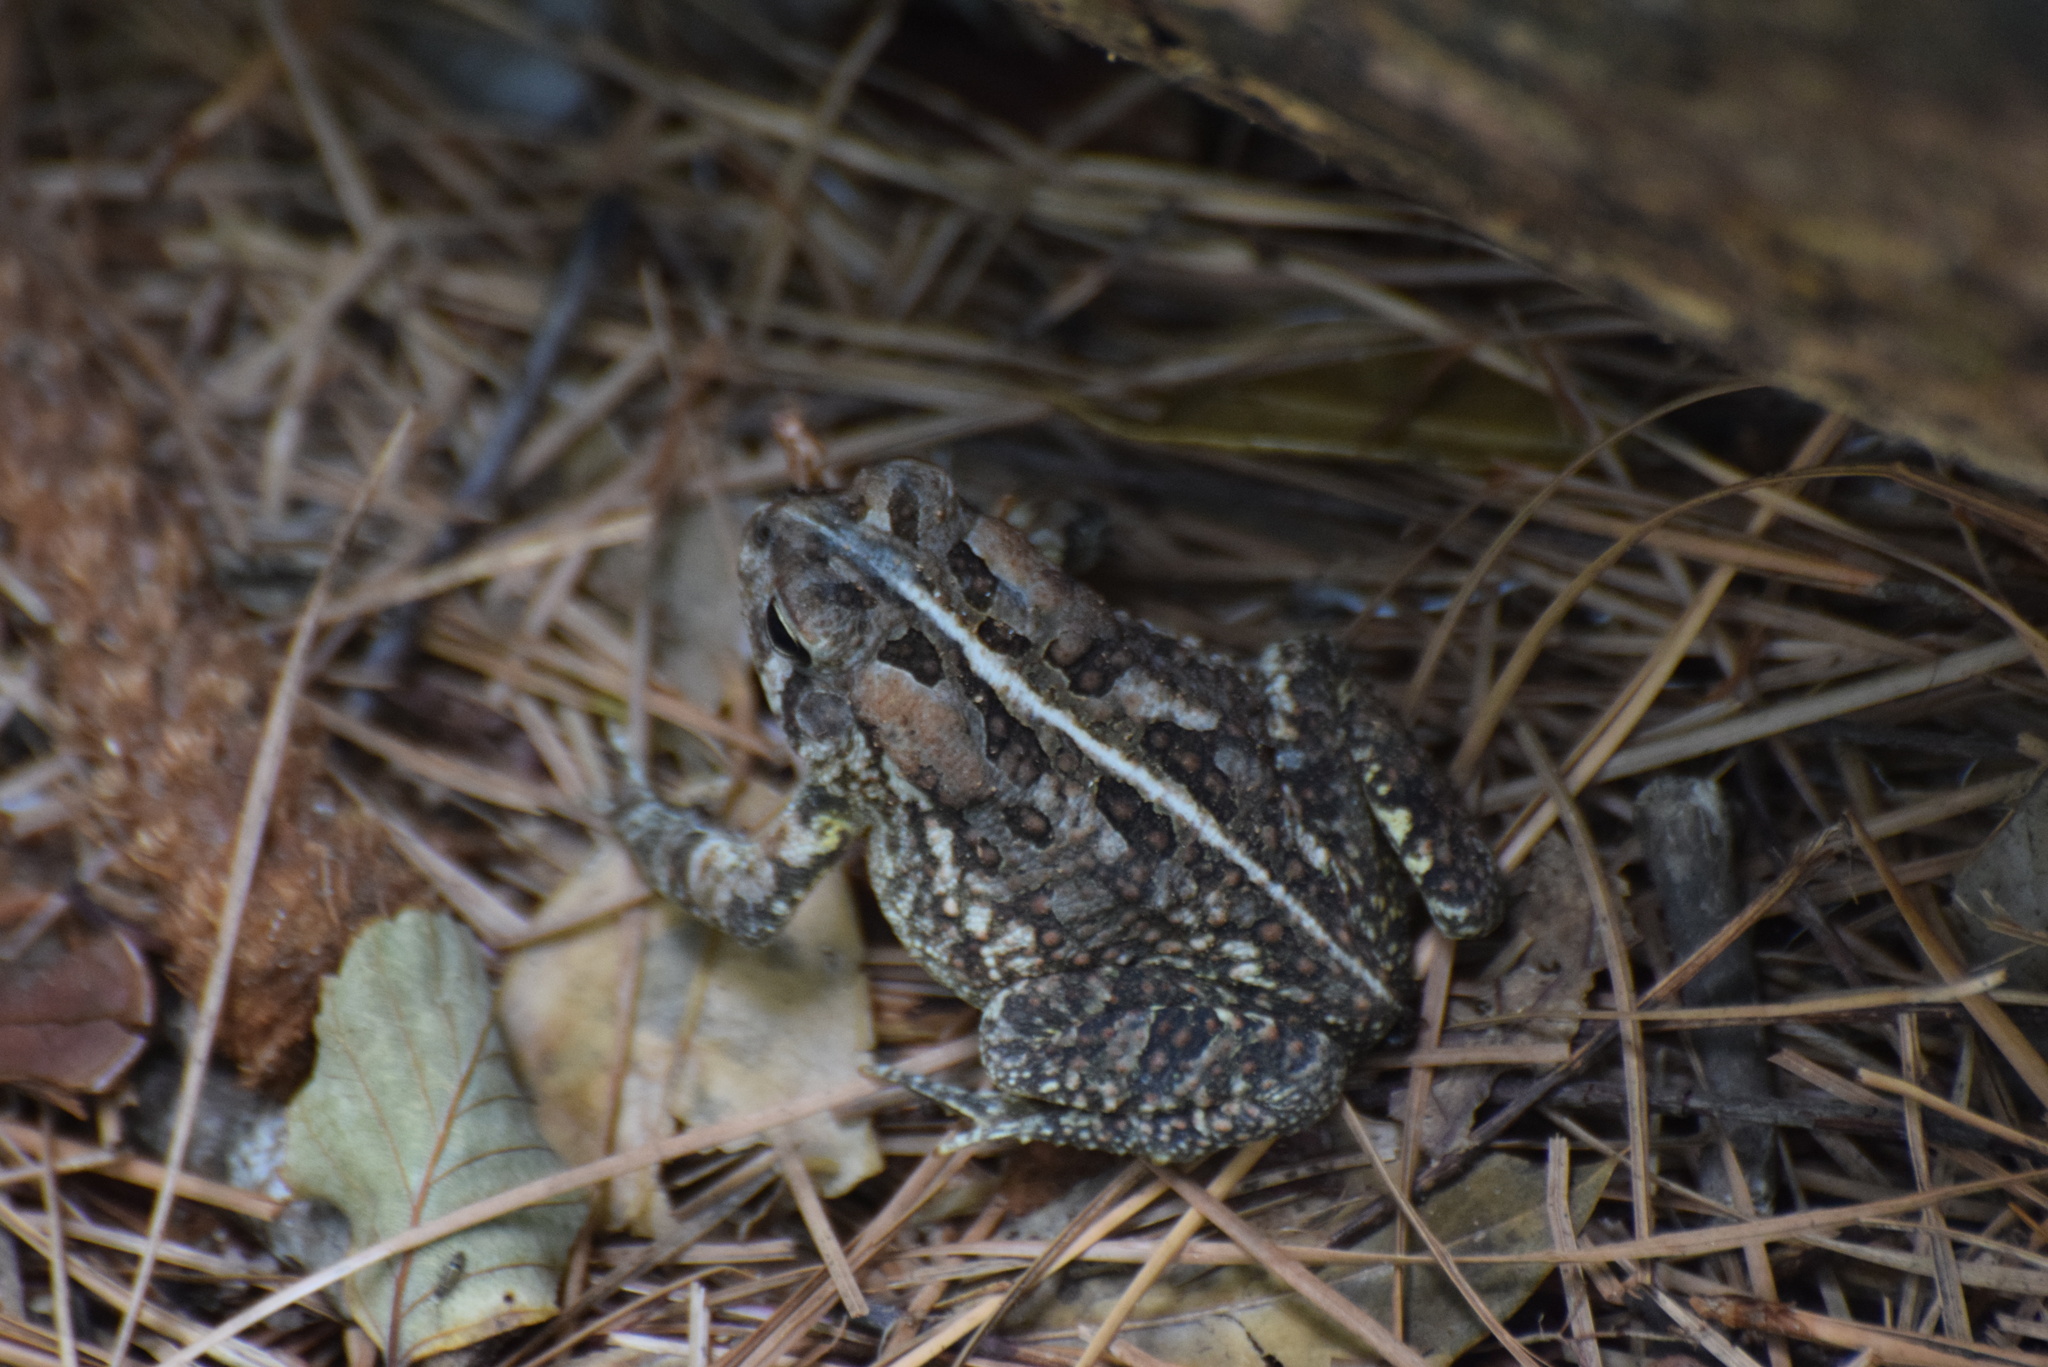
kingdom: Animalia
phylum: Chordata
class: Amphibia
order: Anura
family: Bufonidae
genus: Anaxyrus
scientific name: Anaxyrus fowleri
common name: Fowler's toad
